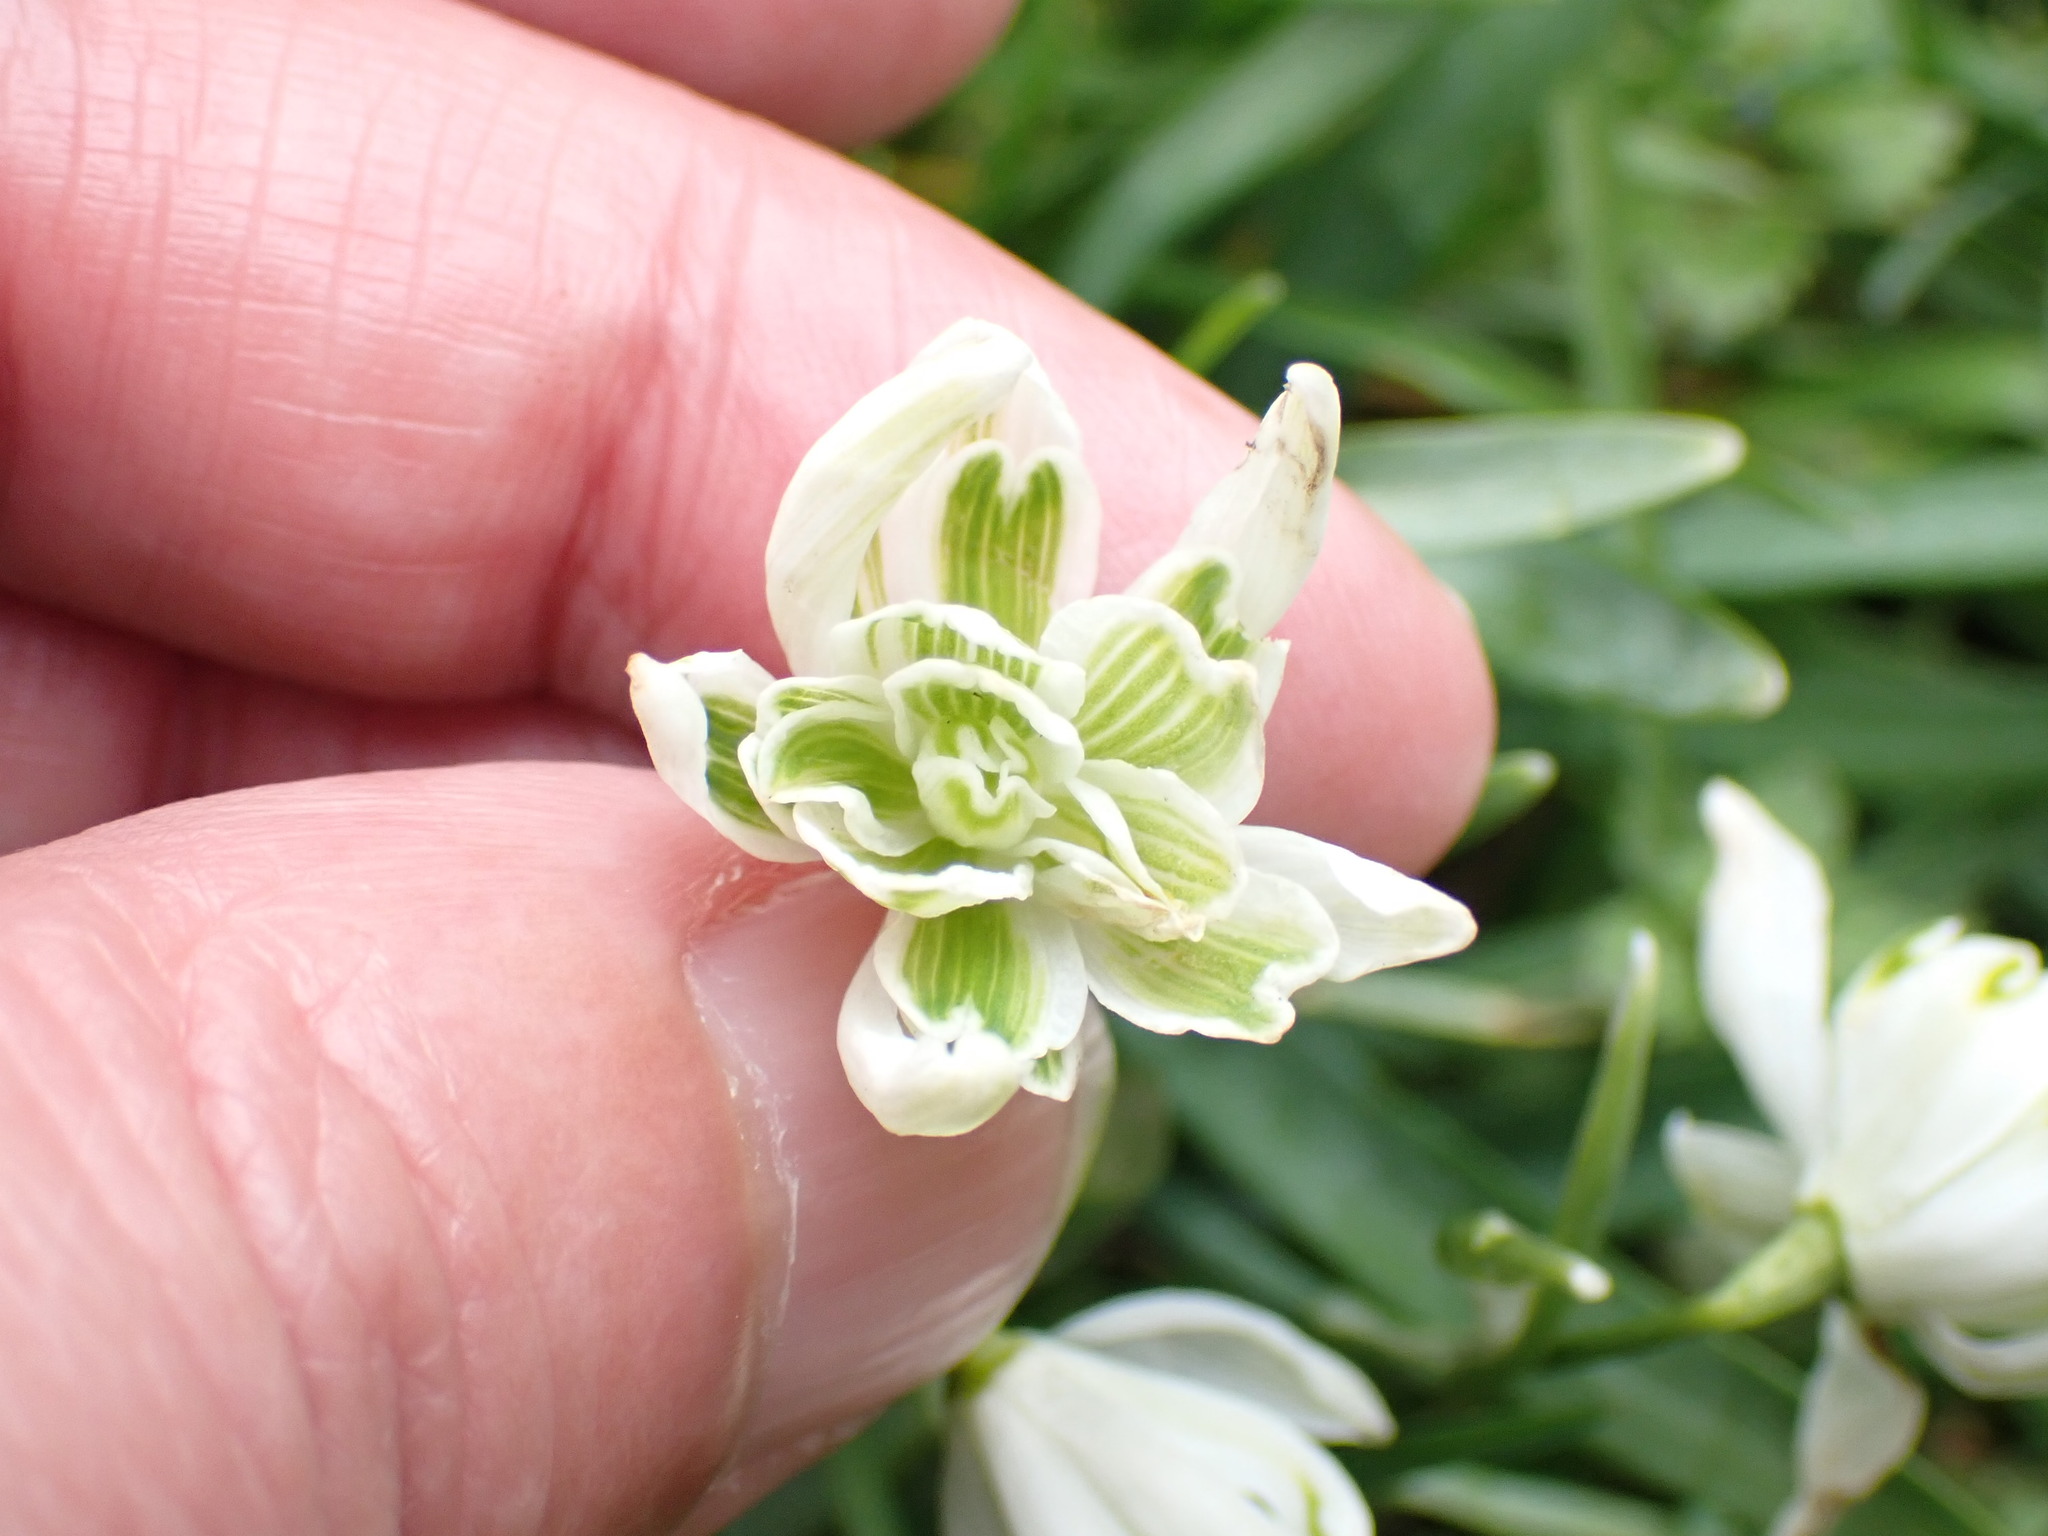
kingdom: Plantae
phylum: Tracheophyta
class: Liliopsida
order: Asparagales
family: Amaryllidaceae
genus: Galanthus
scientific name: Galanthus nivalis
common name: Snowdrop
